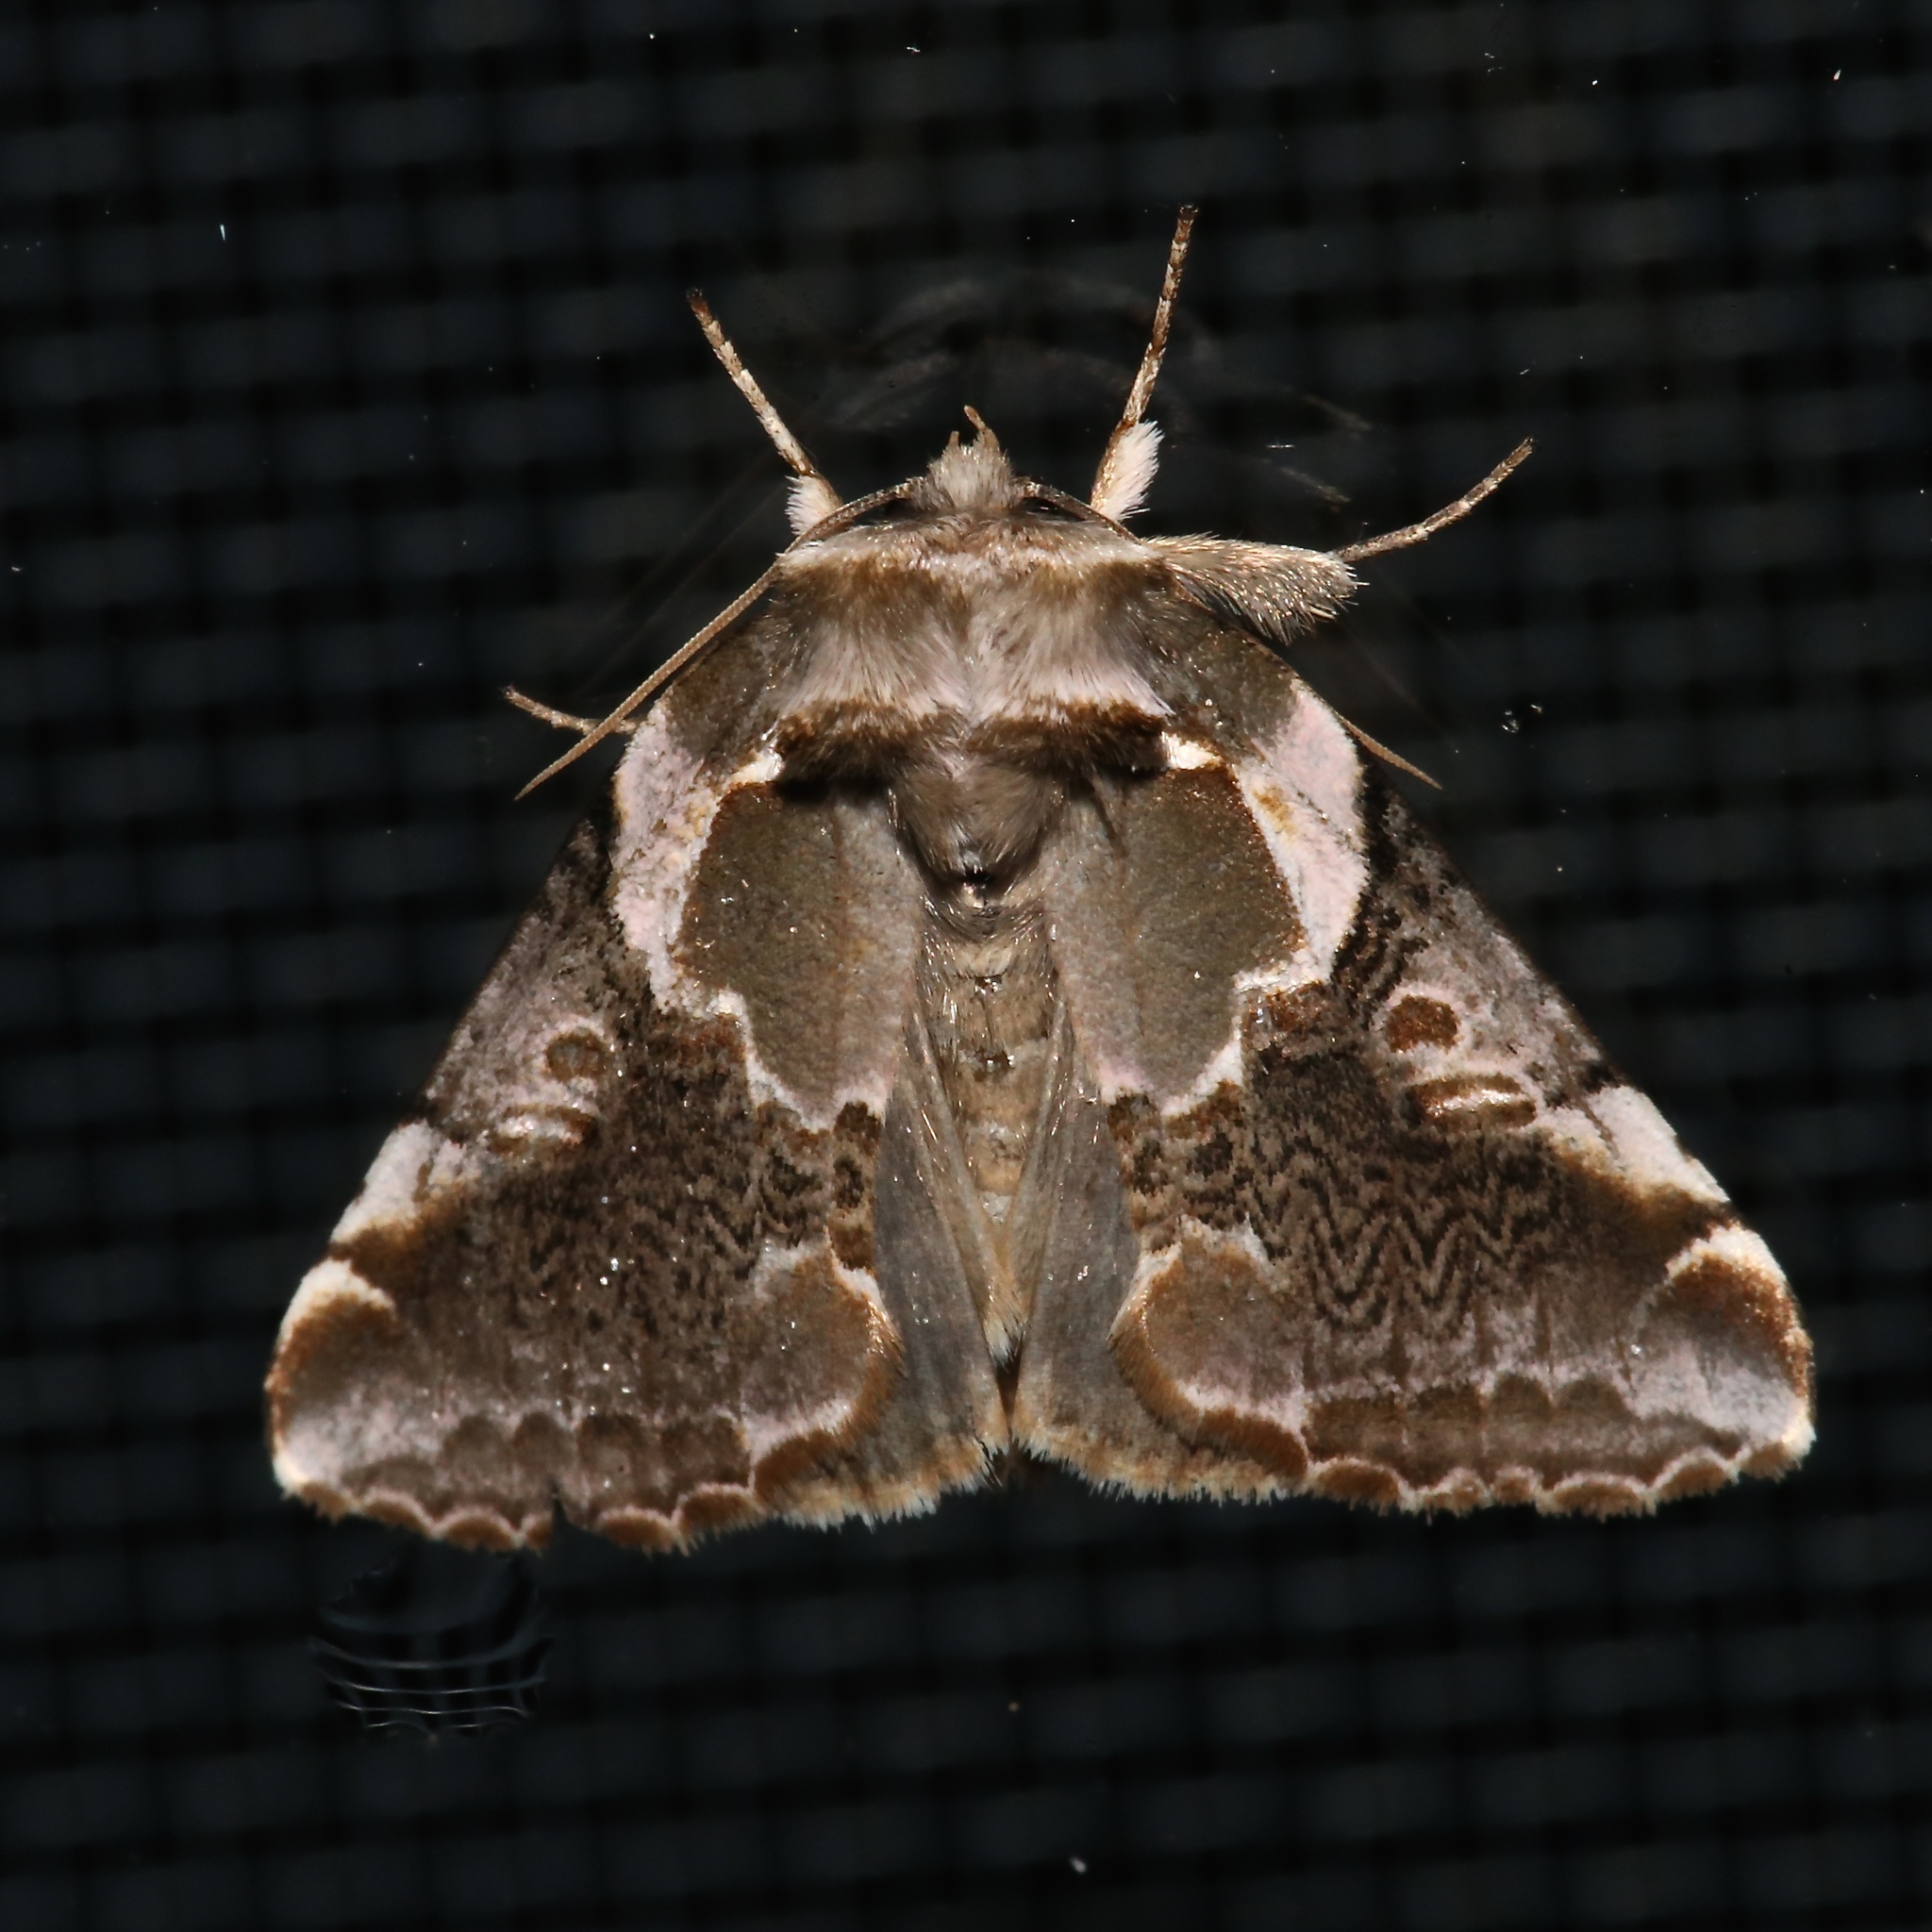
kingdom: Animalia
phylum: Arthropoda
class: Insecta
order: Lepidoptera
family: Drepanidae
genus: Habrosyne
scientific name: Habrosyne gloriosa
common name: Glorious habrosyne moth
